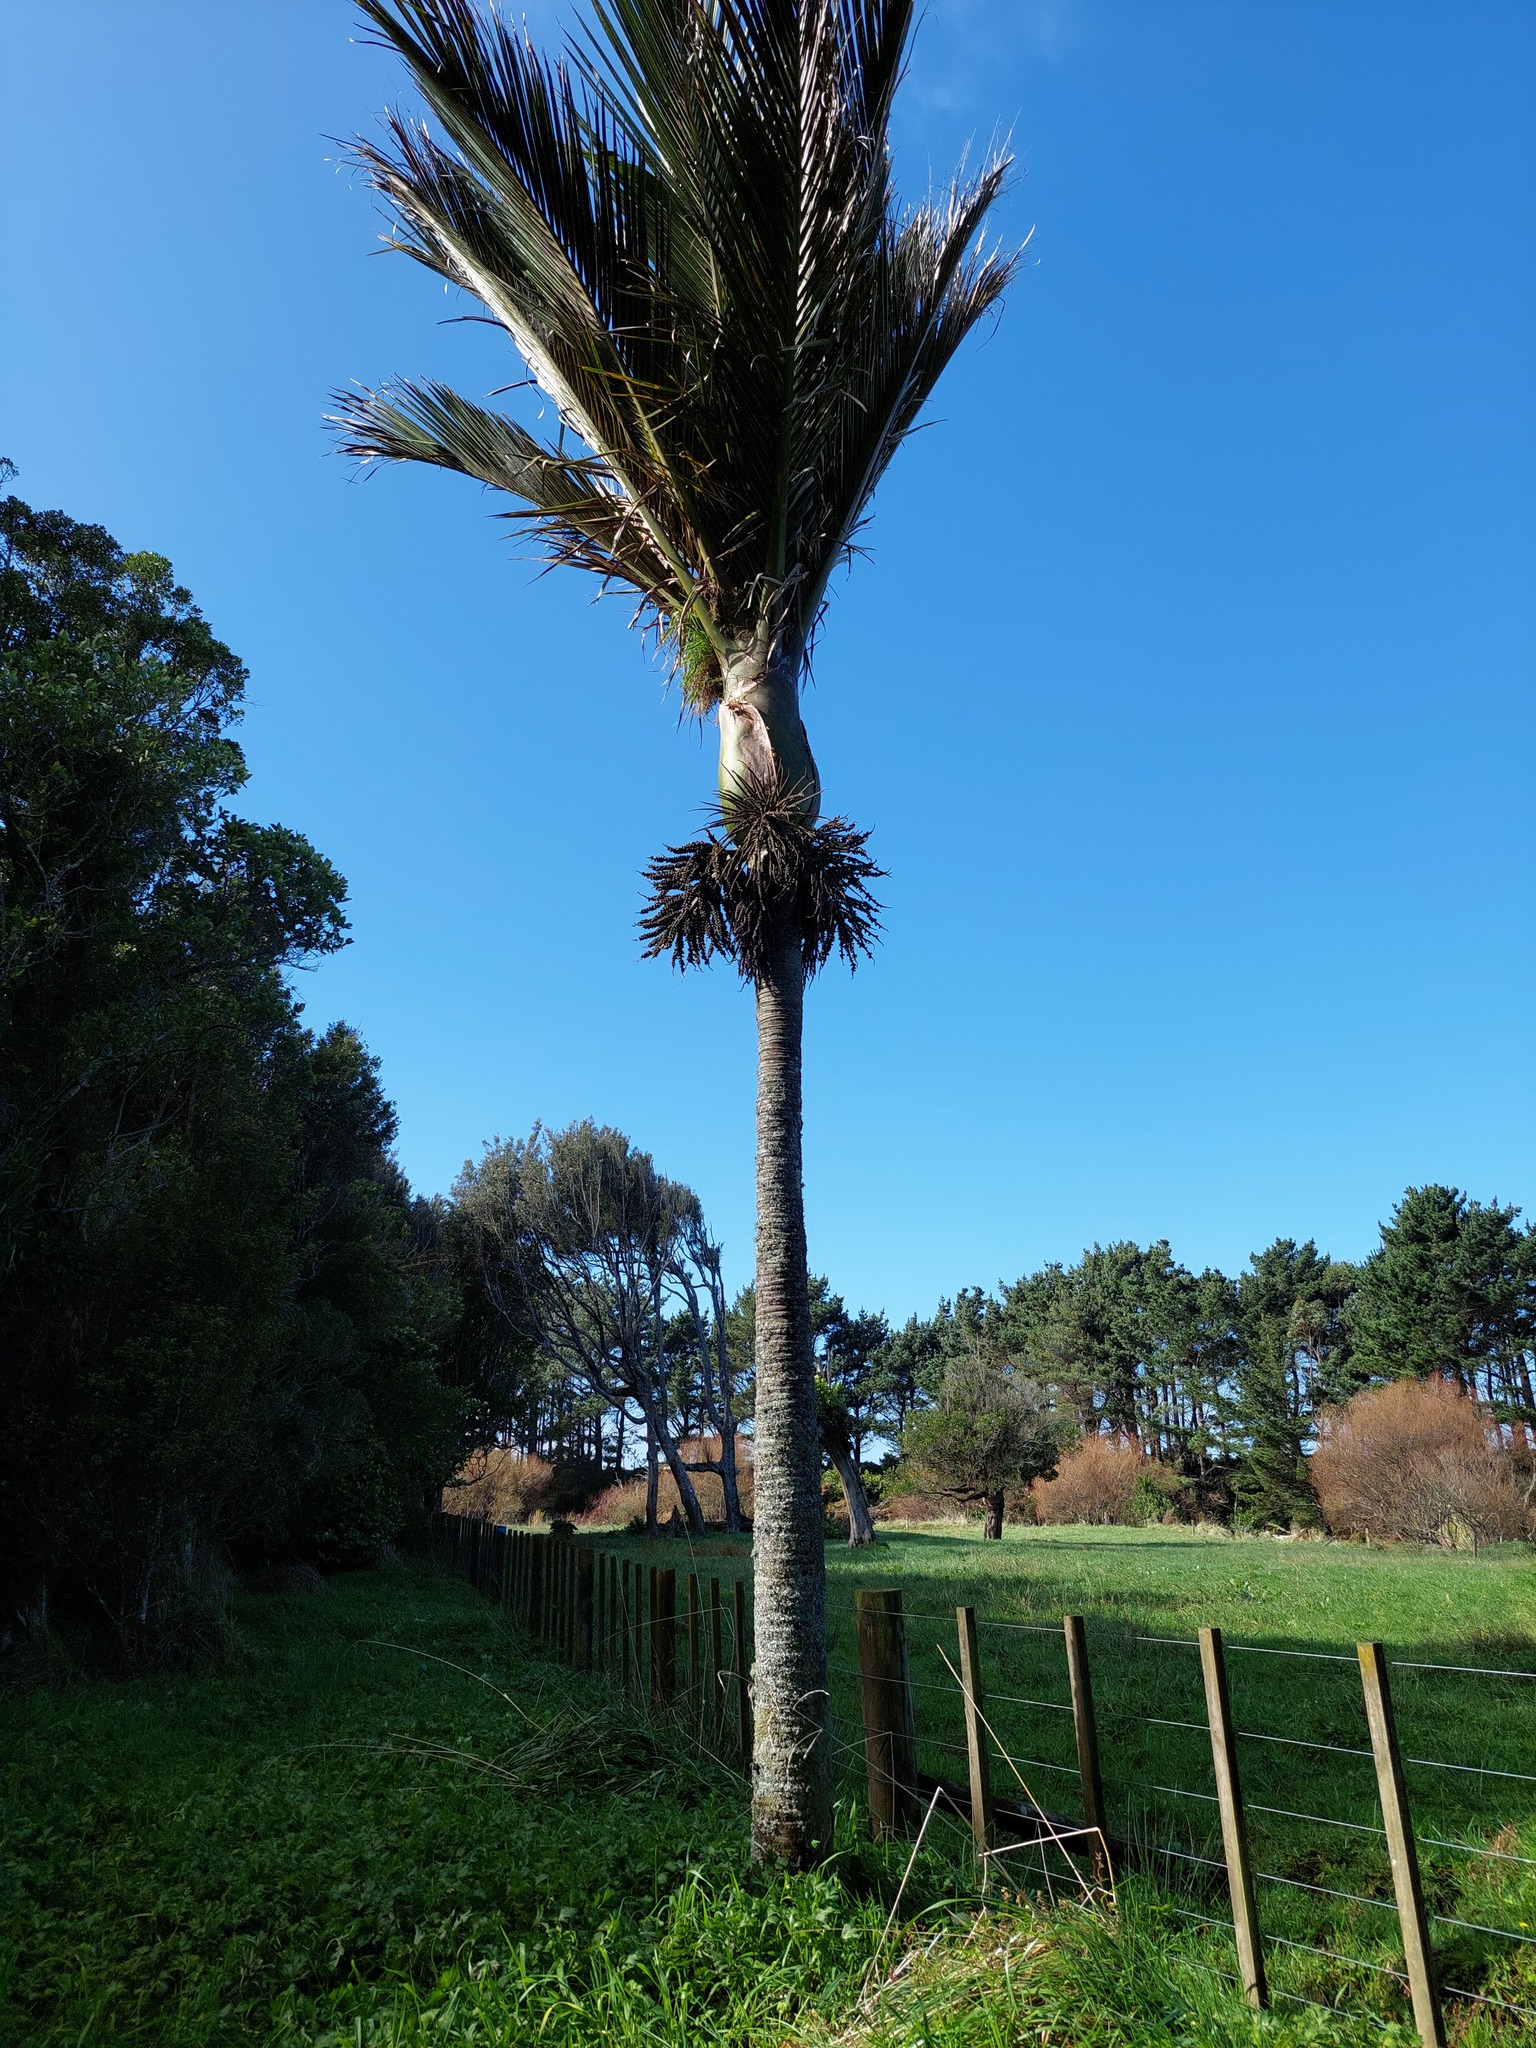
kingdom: Plantae
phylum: Tracheophyta
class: Liliopsida
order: Arecales
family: Arecaceae
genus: Rhopalostylis
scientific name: Rhopalostylis sapida
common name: Feather-duster palm
